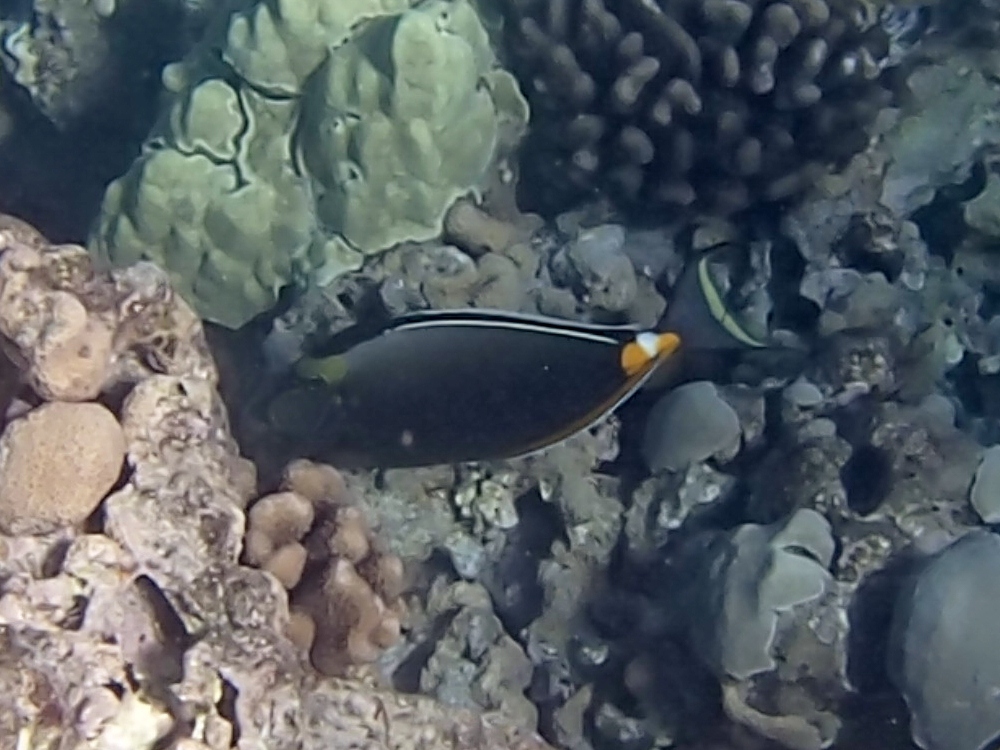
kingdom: Animalia
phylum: Chordata
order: Perciformes
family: Acanthuridae
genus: Naso
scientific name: Naso lituratus
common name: Orangespine unicornfish
